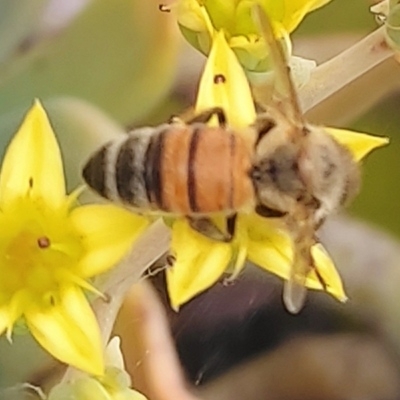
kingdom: Animalia
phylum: Arthropoda
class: Insecta
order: Hymenoptera
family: Apidae
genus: Apis
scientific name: Apis mellifera
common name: Honey bee
